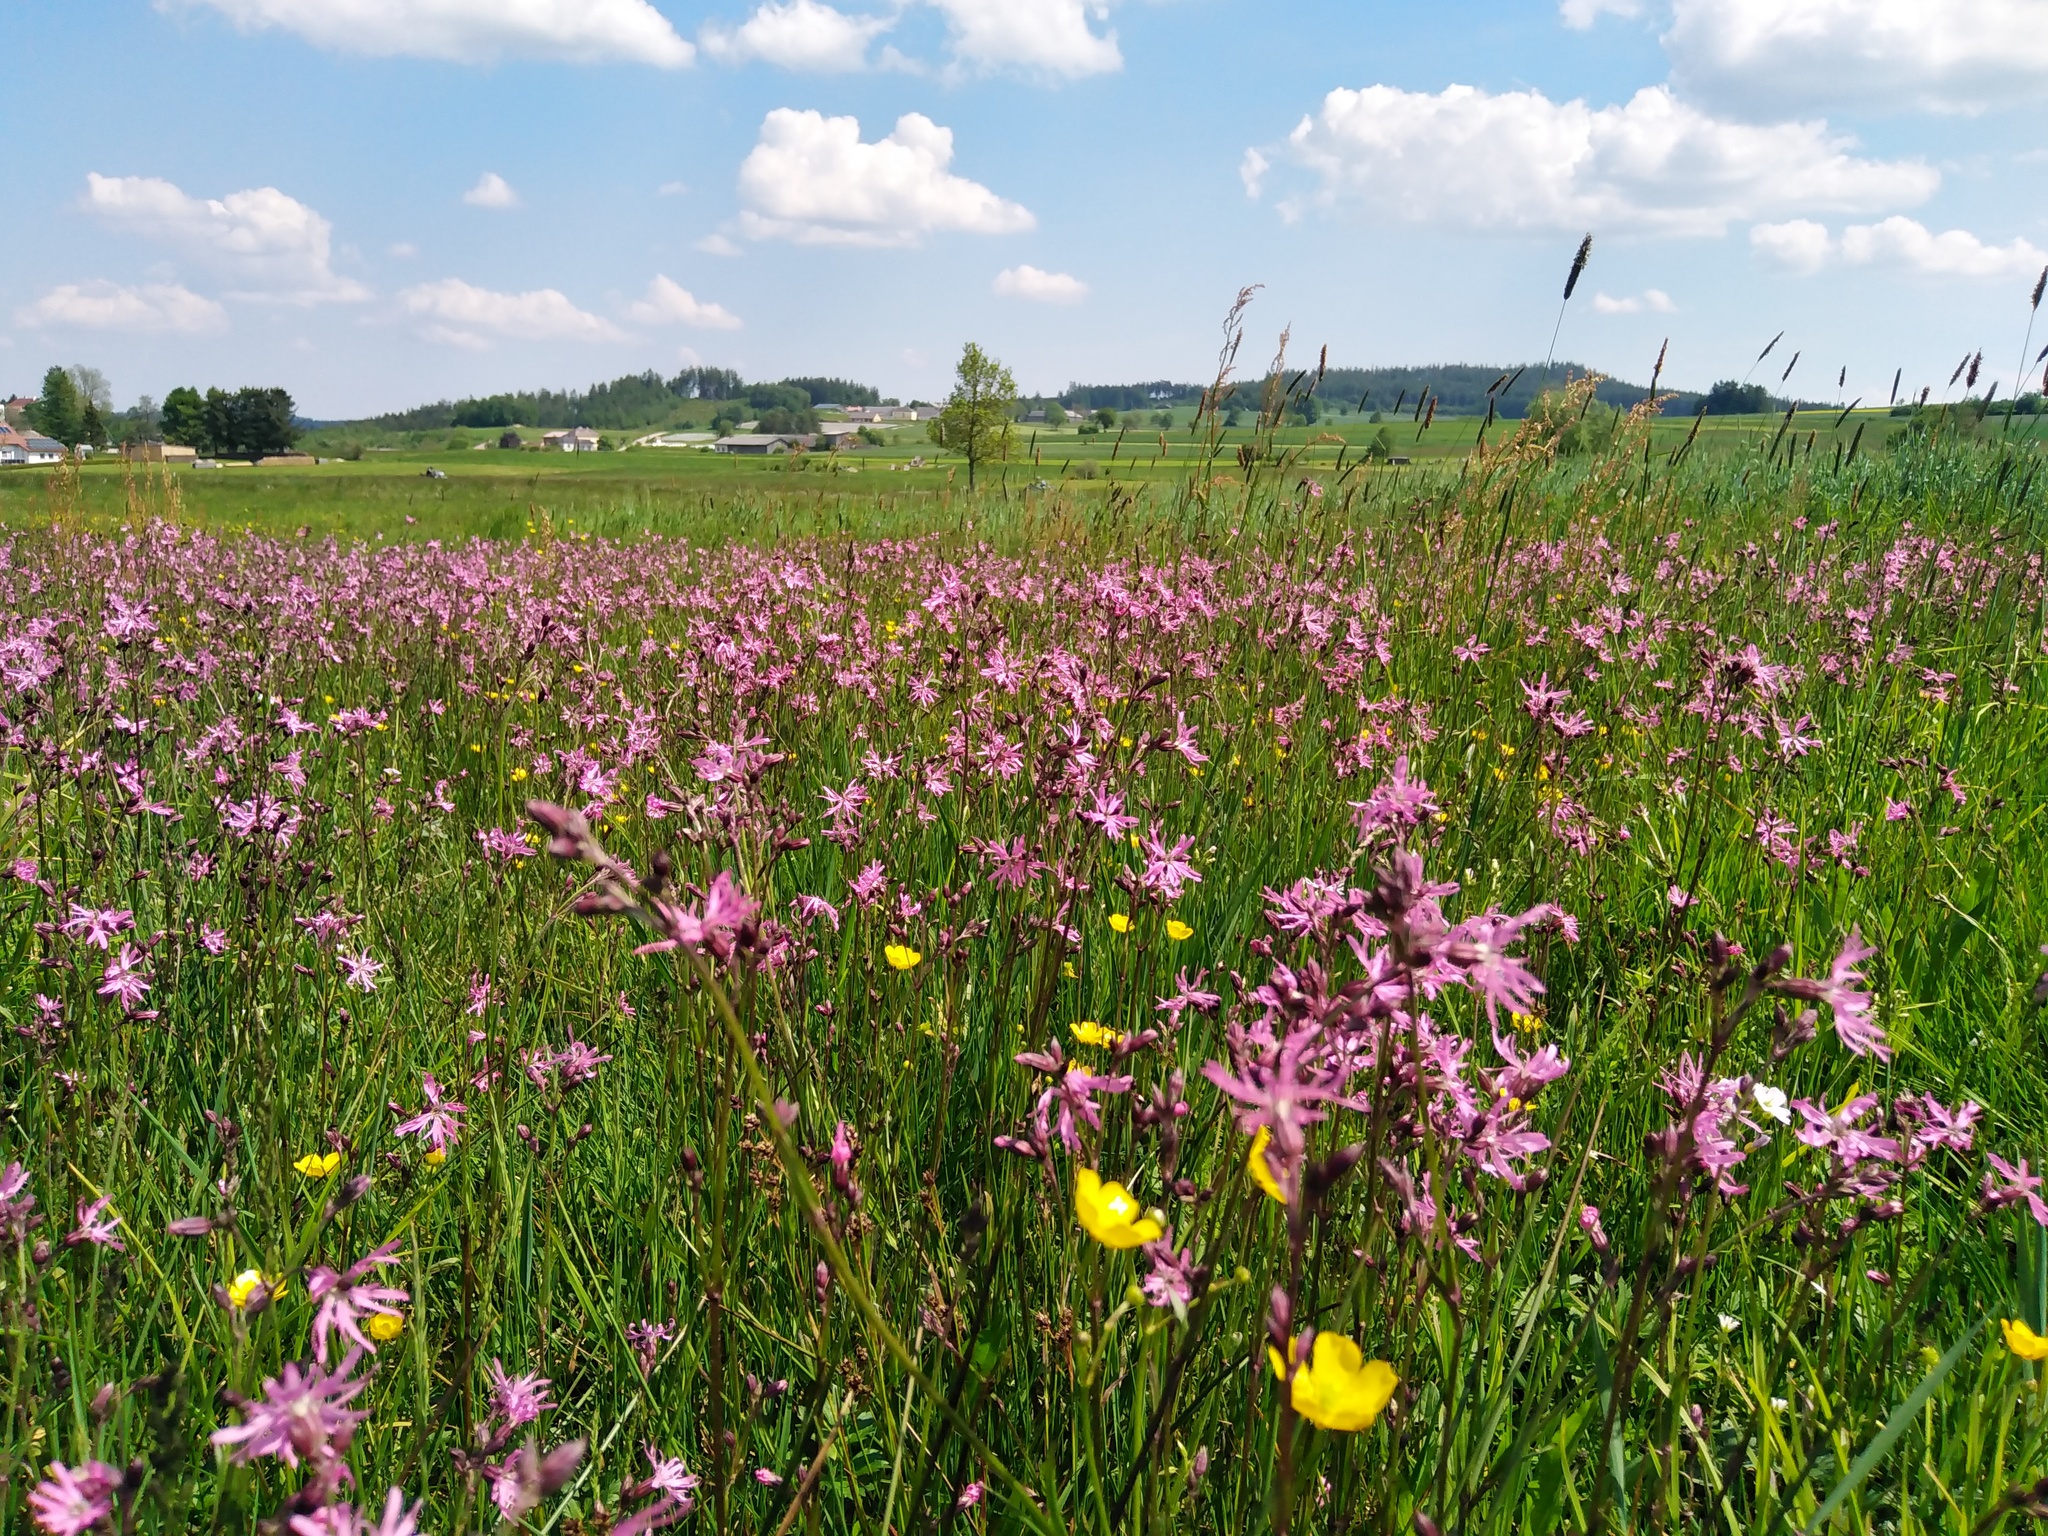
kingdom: Plantae
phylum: Tracheophyta
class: Magnoliopsida
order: Caryophyllales
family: Caryophyllaceae
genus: Silene
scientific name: Silene flos-cuculi
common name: Ragged-robin
